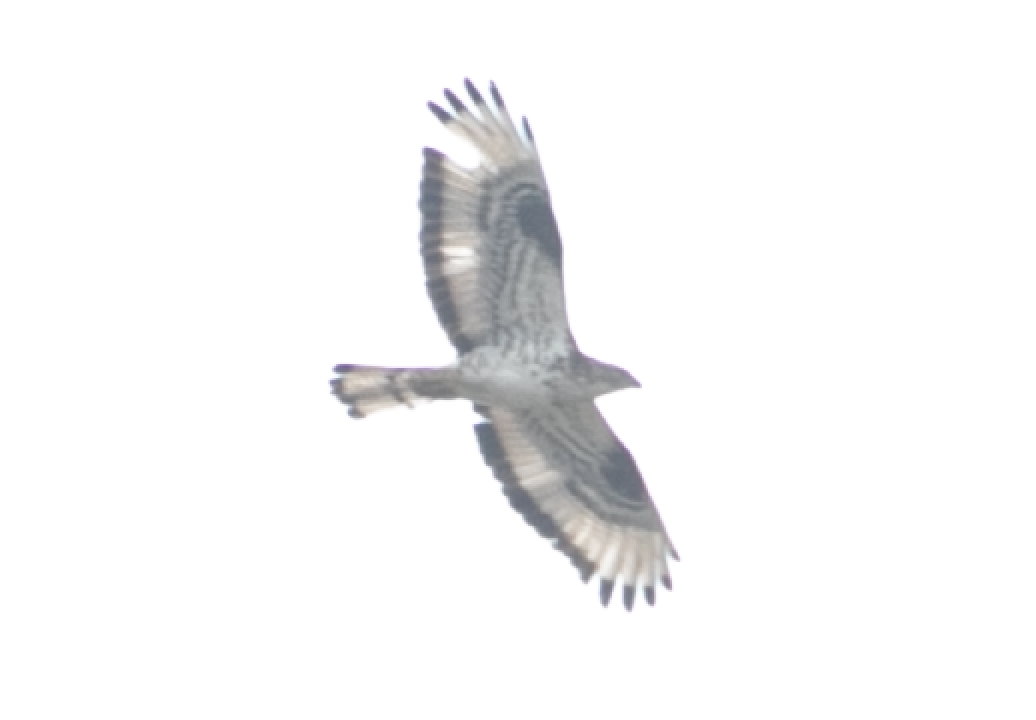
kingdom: Animalia
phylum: Chordata
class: Aves
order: Accipitriformes
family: Accipitridae
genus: Pernis
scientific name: Pernis apivorus
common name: European honey buzzard
